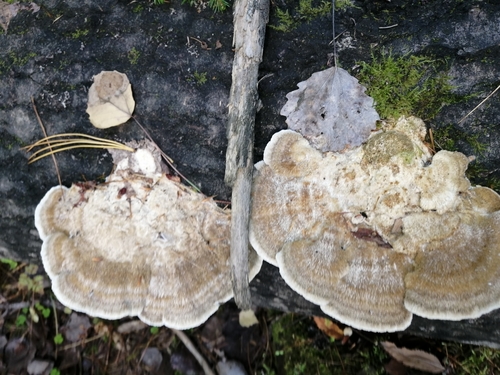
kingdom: Fungi
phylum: Basidiomycota
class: Agaricomycetes
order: Polyporales
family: Polyporaceae
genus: Trametes
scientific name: Trametes trogii
